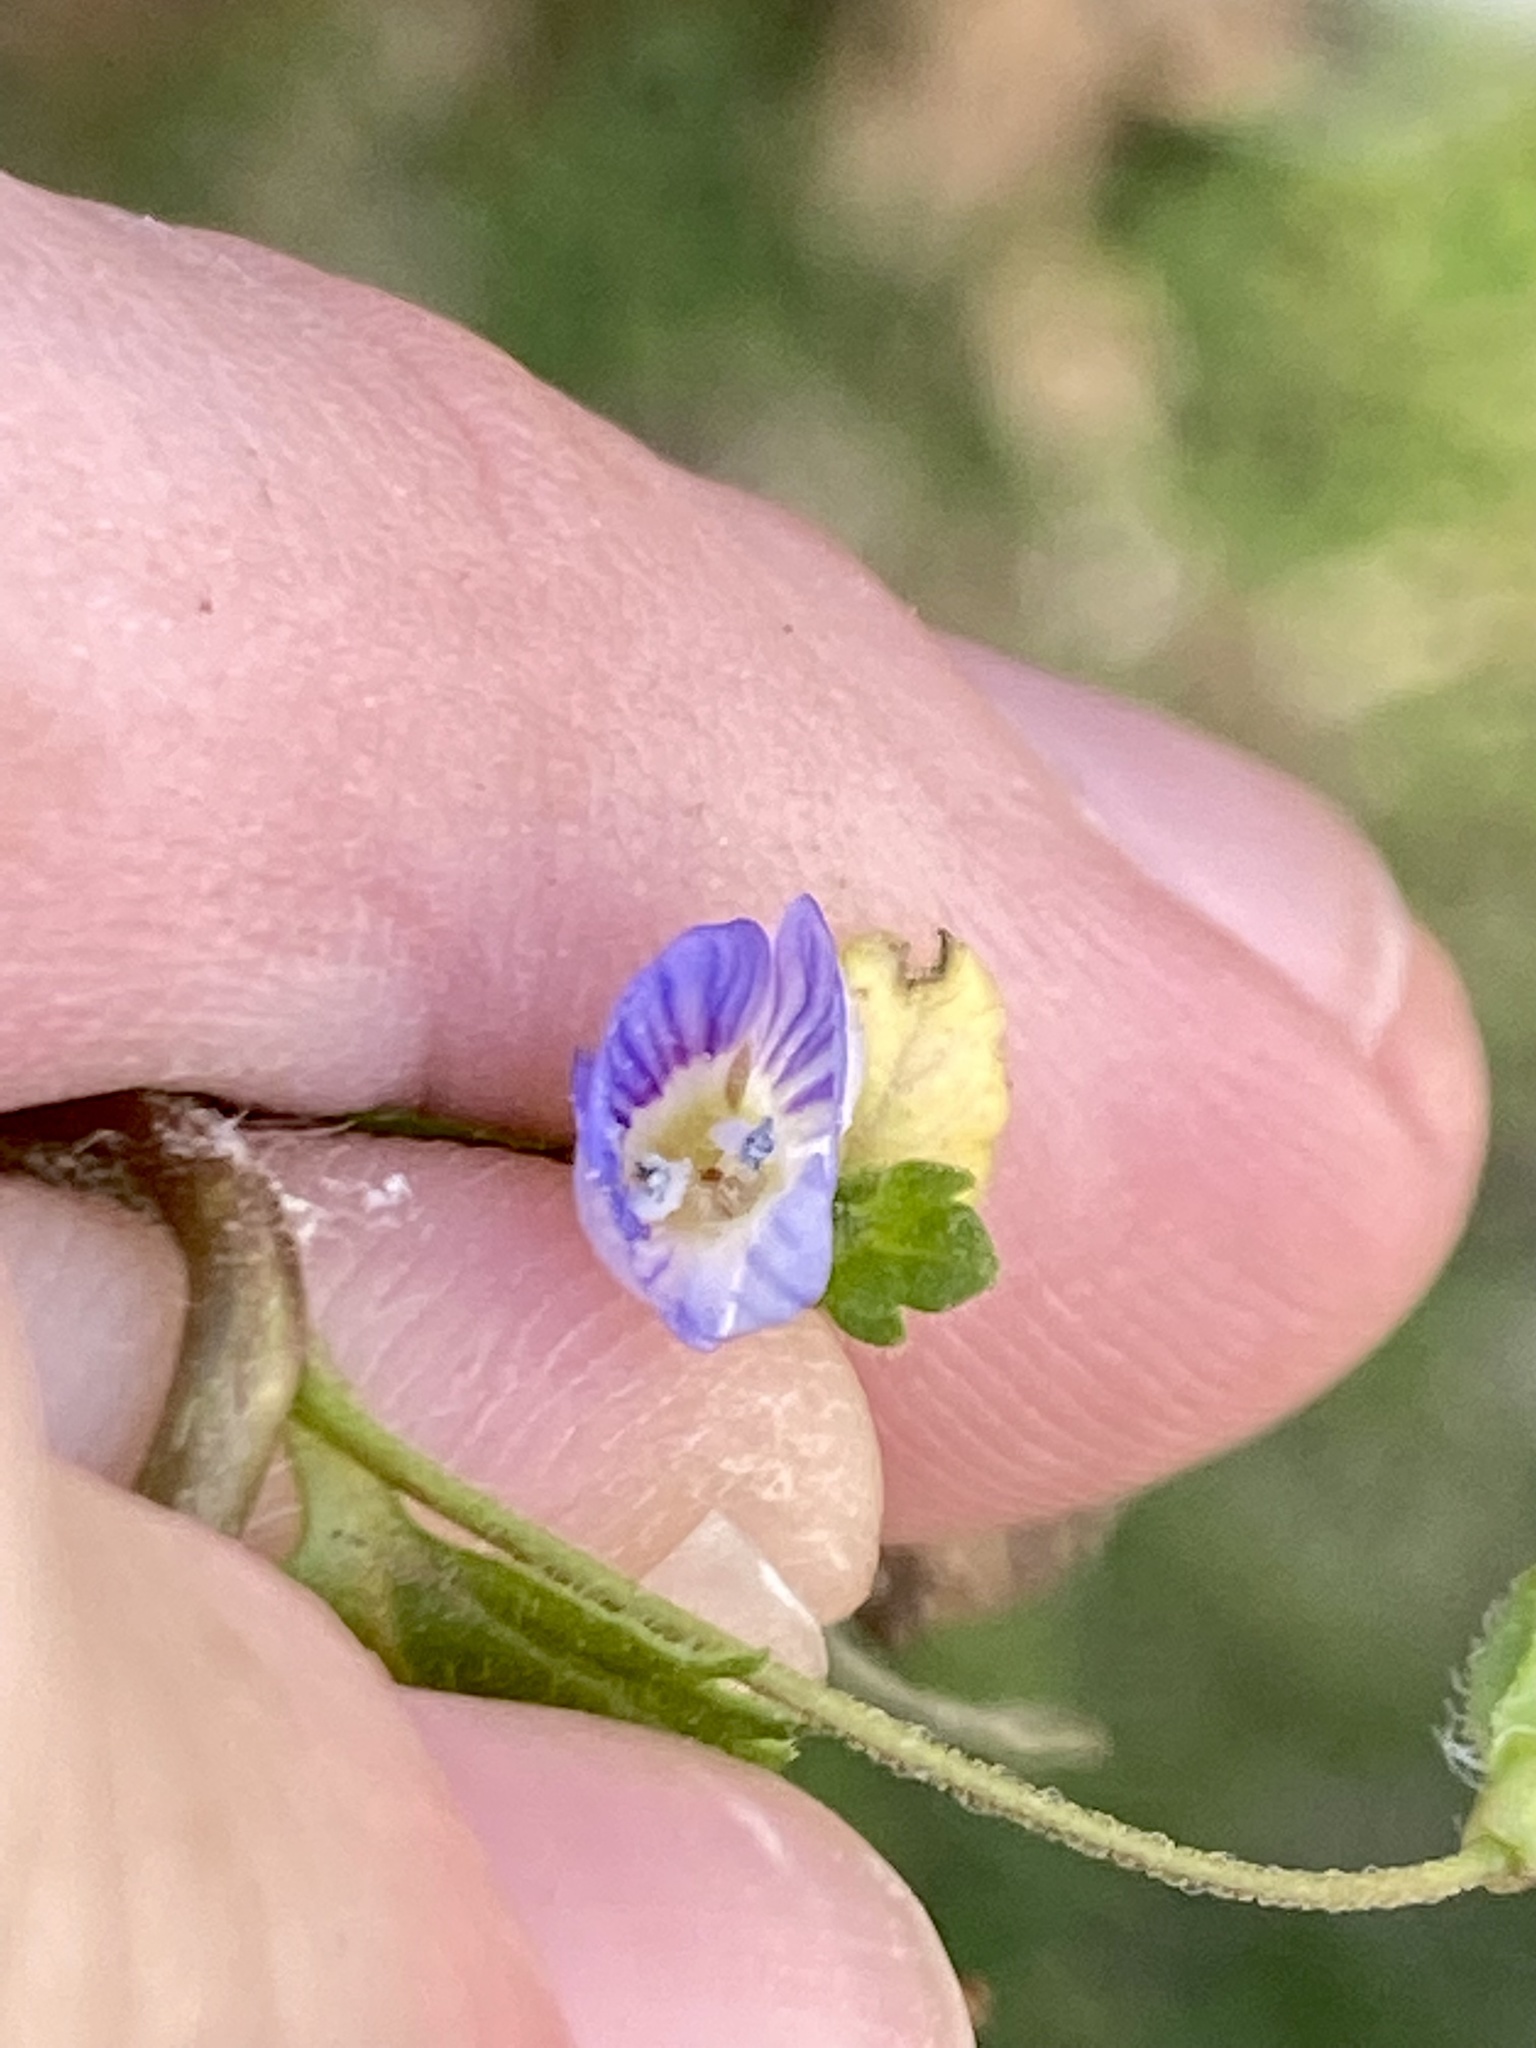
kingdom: Plantae
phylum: Tracheophyta
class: Magnoliopsida
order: Lamiales
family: Plantaginaceae
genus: Veronica
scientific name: Veronica persica
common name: Common field-speedwell
